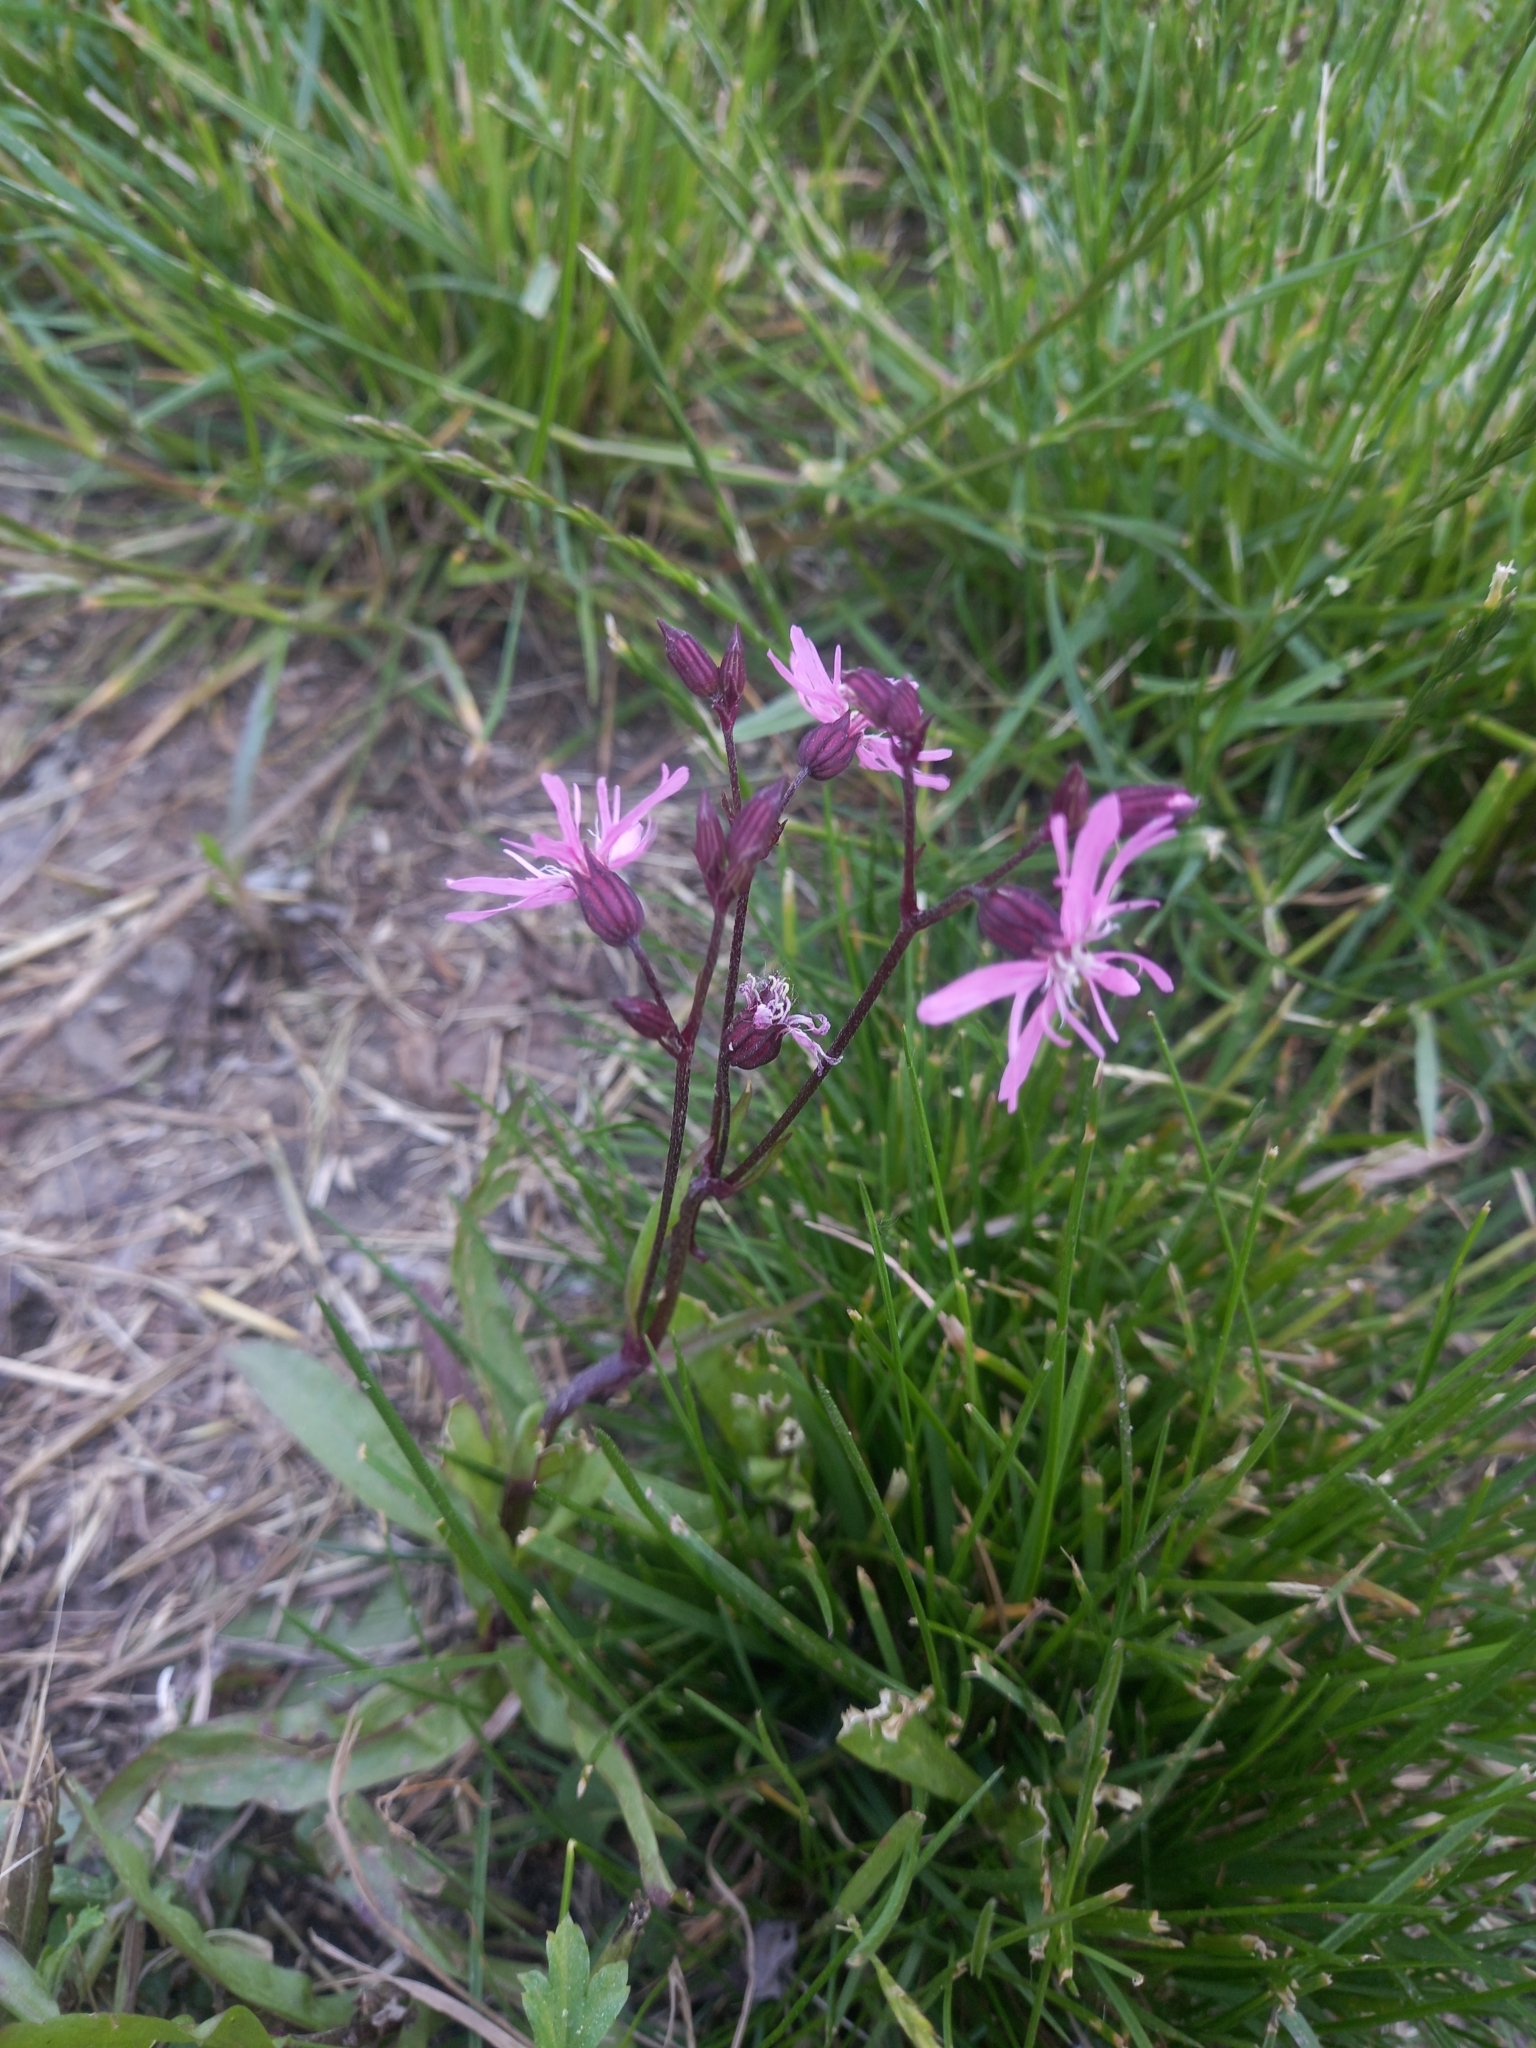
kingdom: Plantae
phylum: Tracheophyta
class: Magnoliopsida
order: Caryophyllales
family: Caryophyllaceae
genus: Silene
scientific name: Silene flos-cuculi
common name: Ragged-robin
